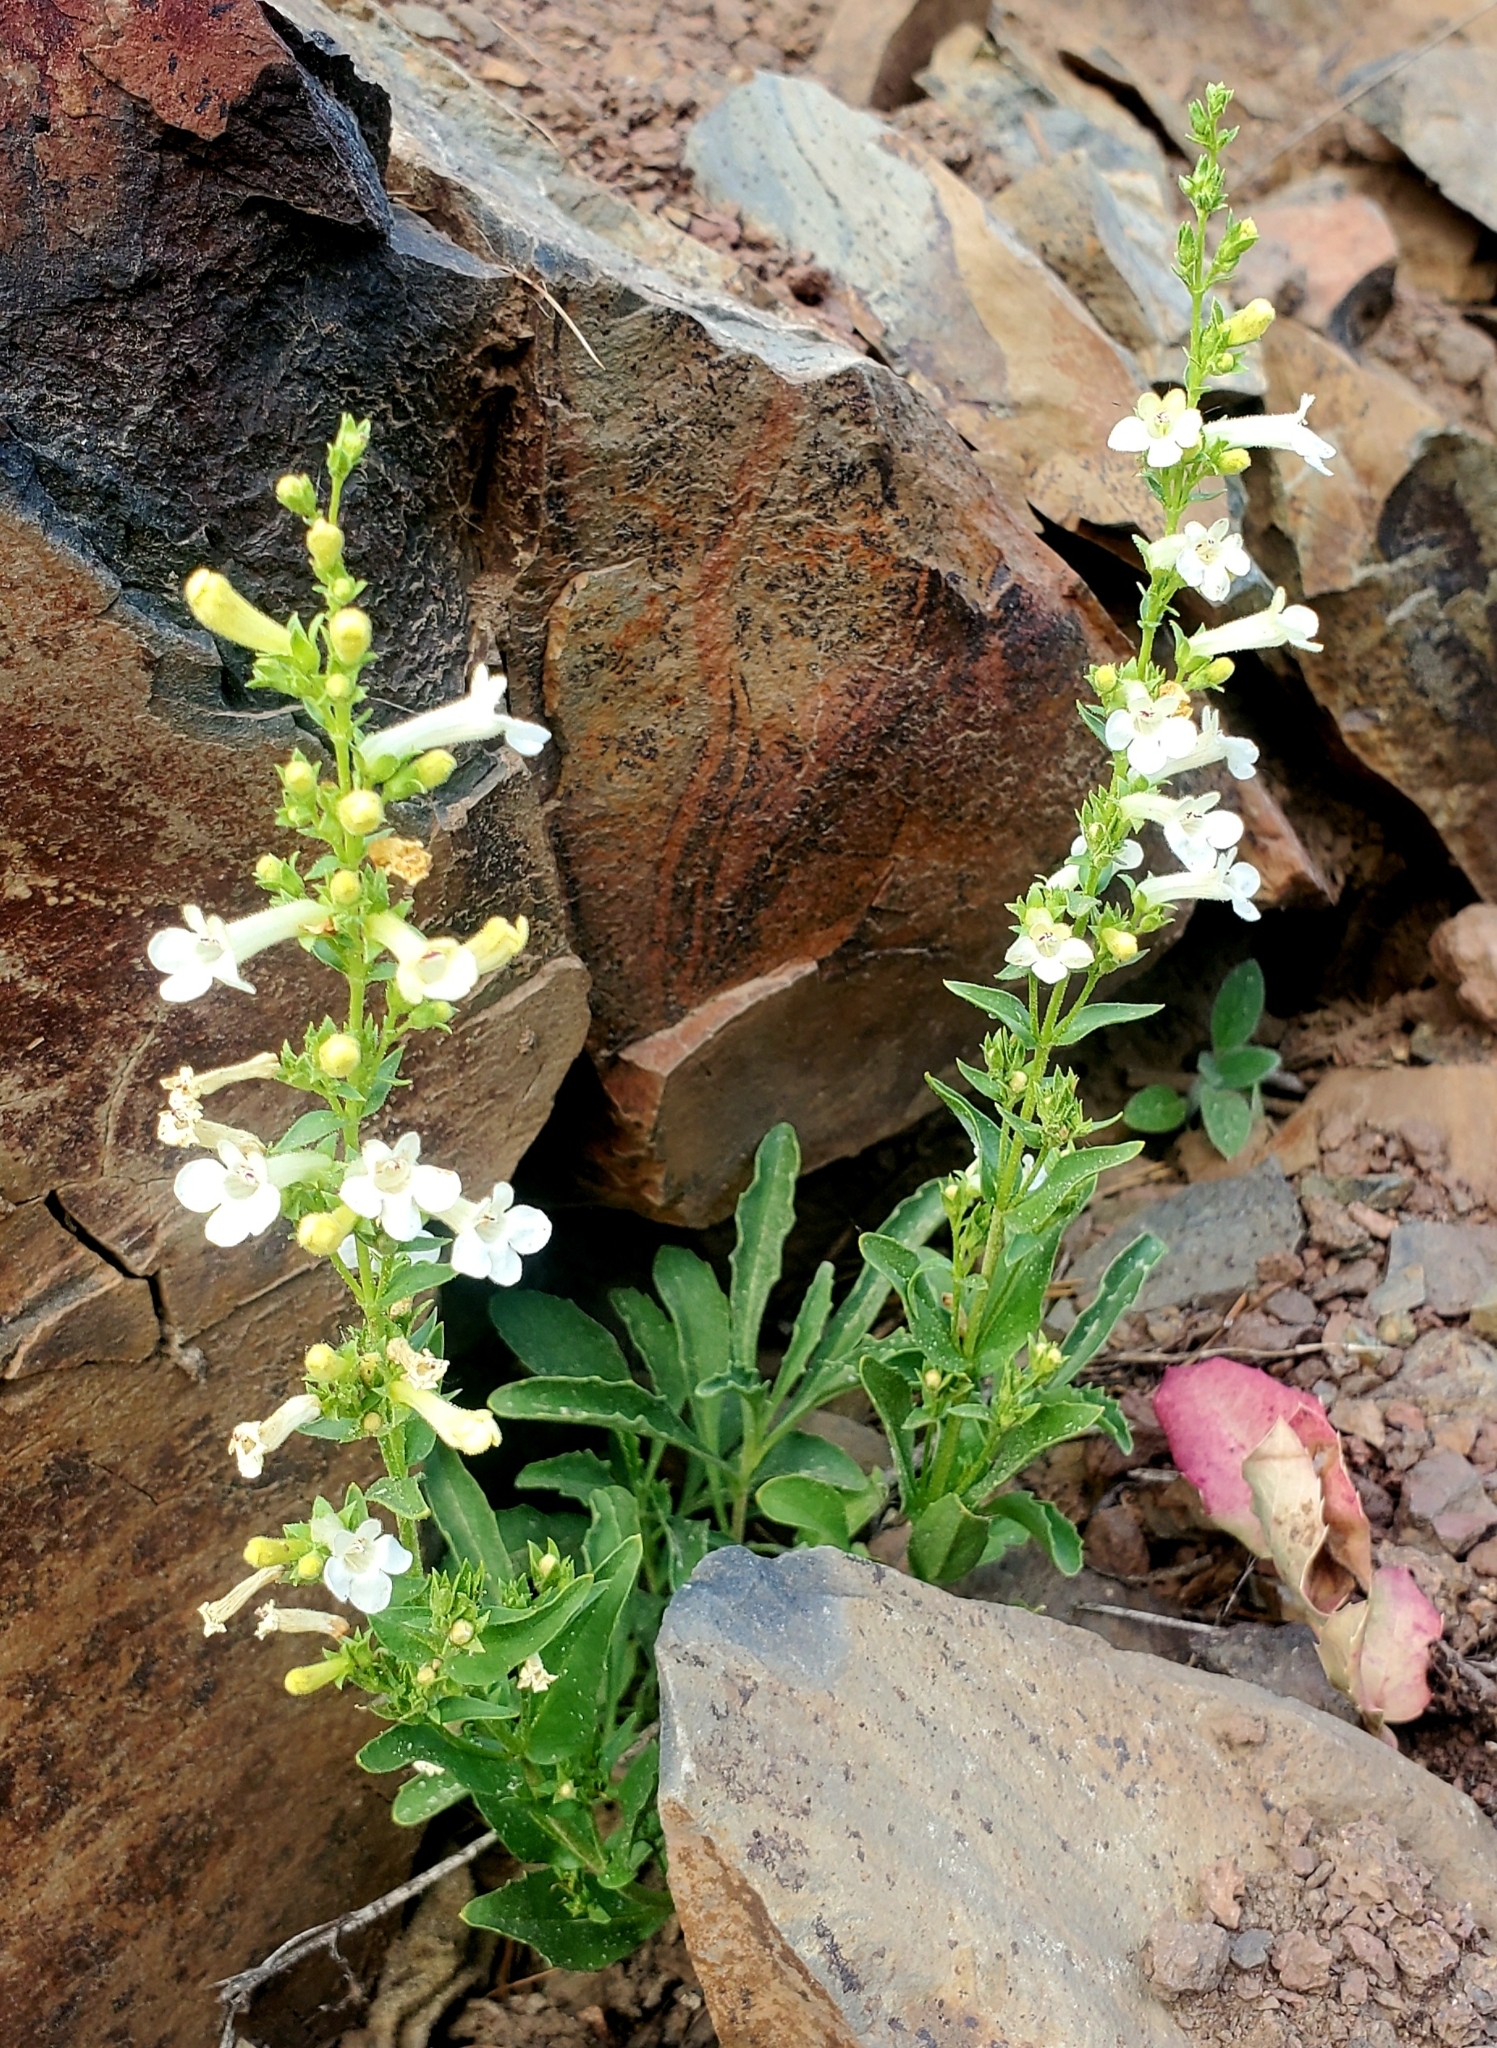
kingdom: Plantae
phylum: Tracheophyta
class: Magnoliopsida
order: Lamiales
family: Plantaginaceae
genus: Penstemon
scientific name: Penstemon deustus
